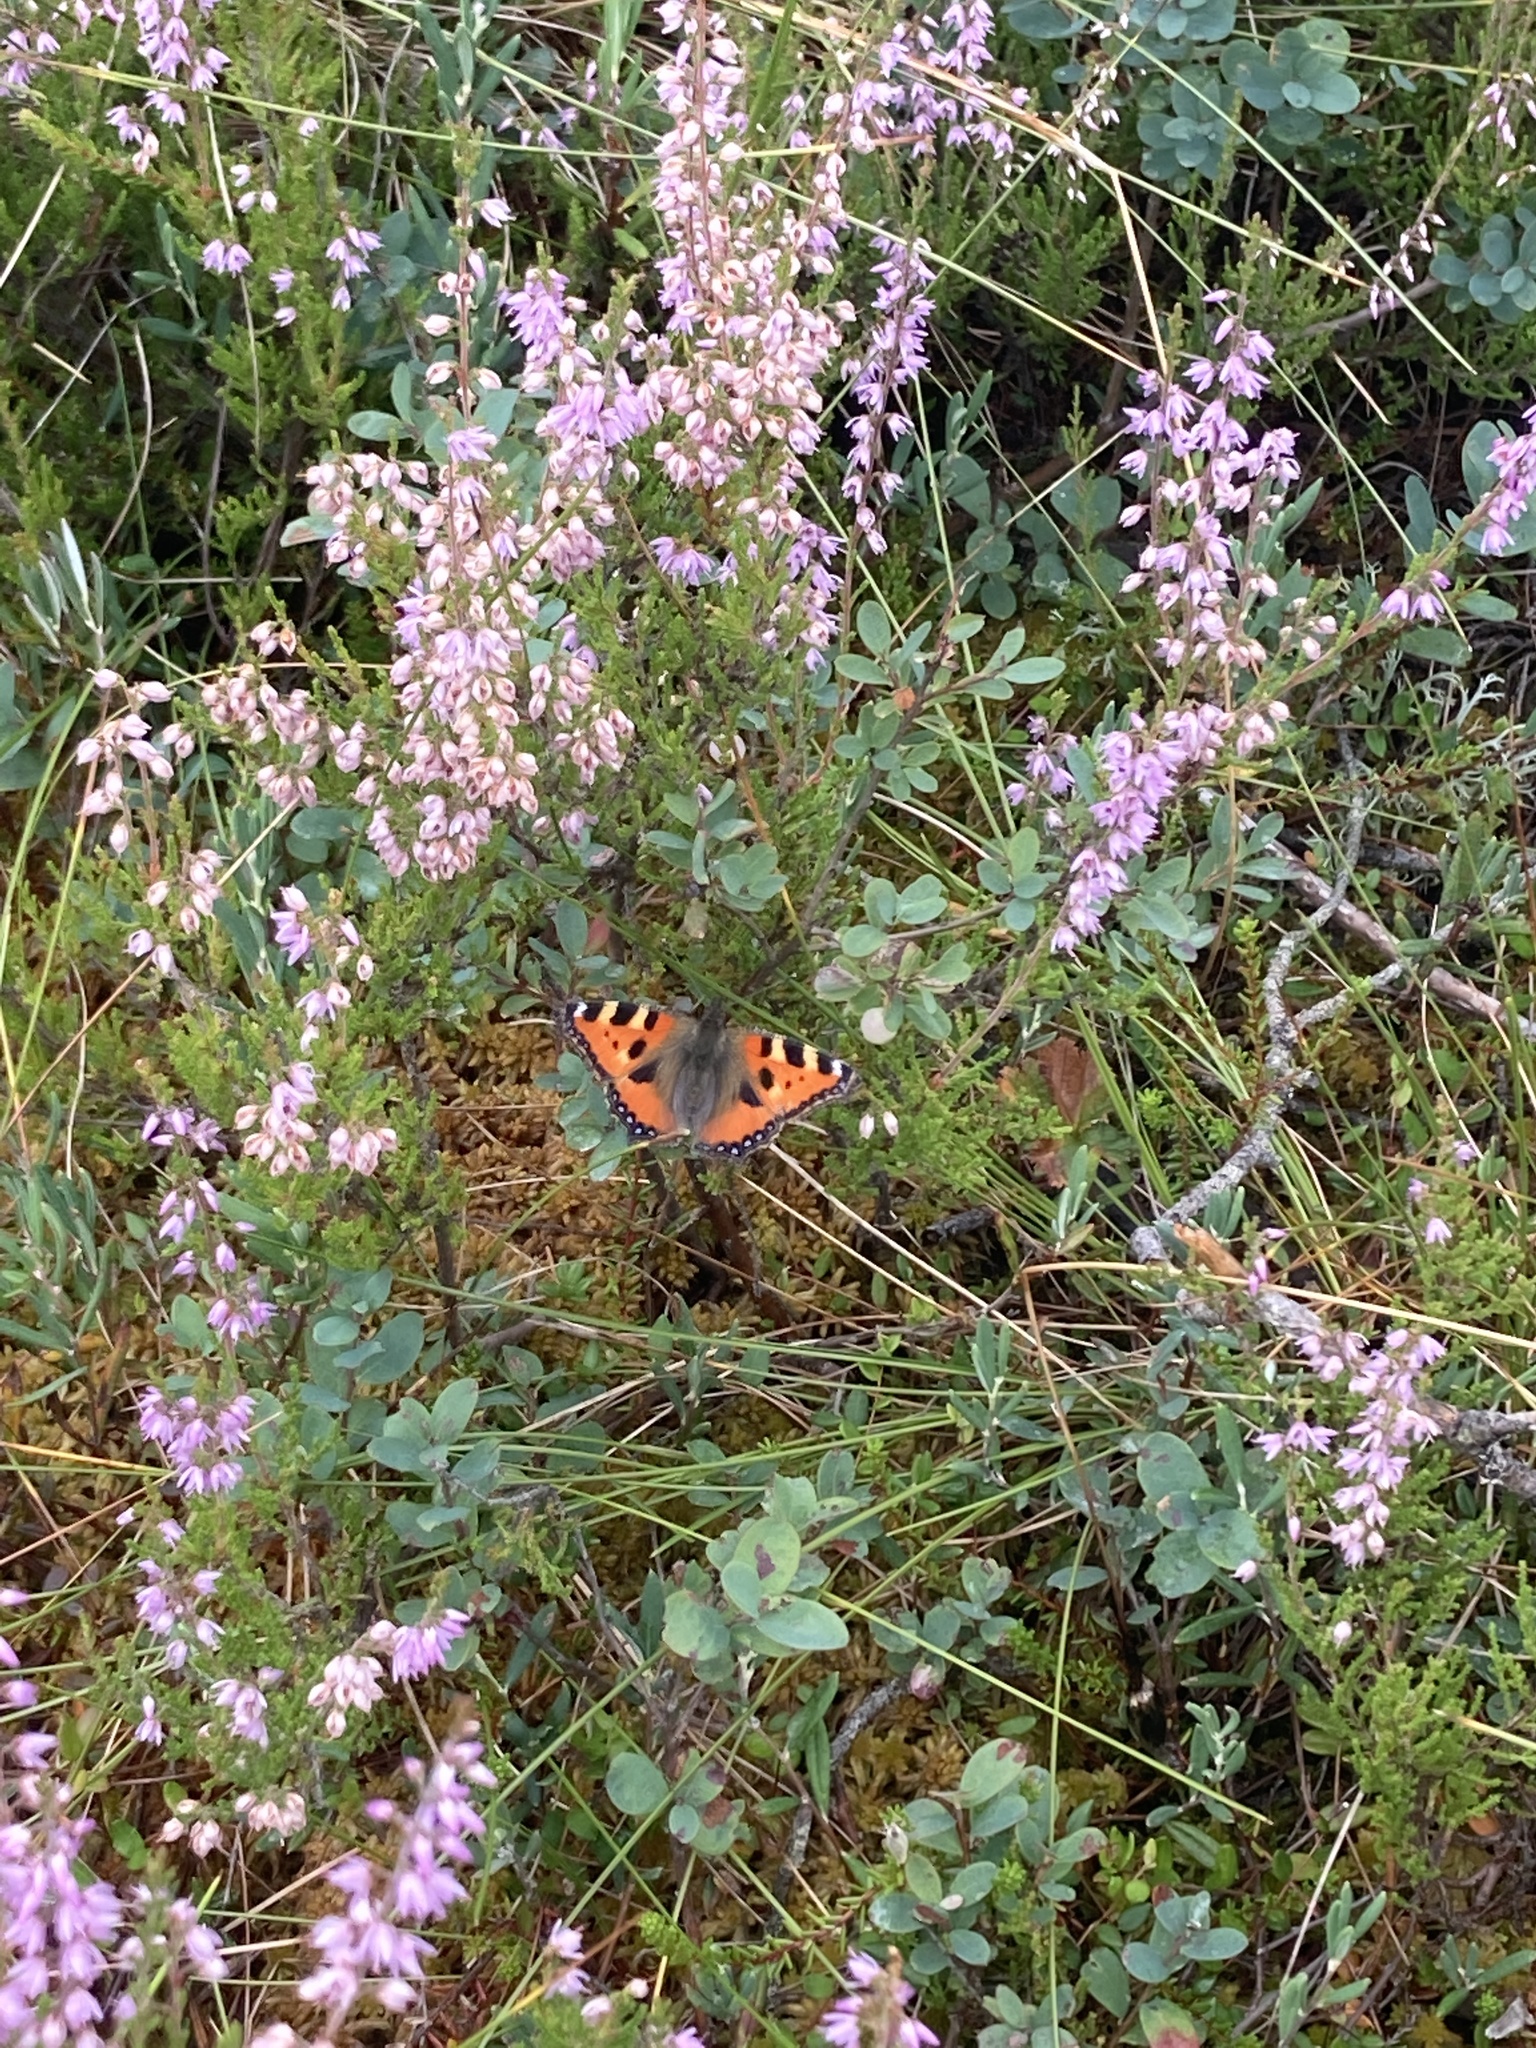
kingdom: Animalia
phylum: Arthropoda
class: Insecta
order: Lepidoptera
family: Nymphalidae
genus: Aglais
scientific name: Aglais urticae
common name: Small tortoiseshell
